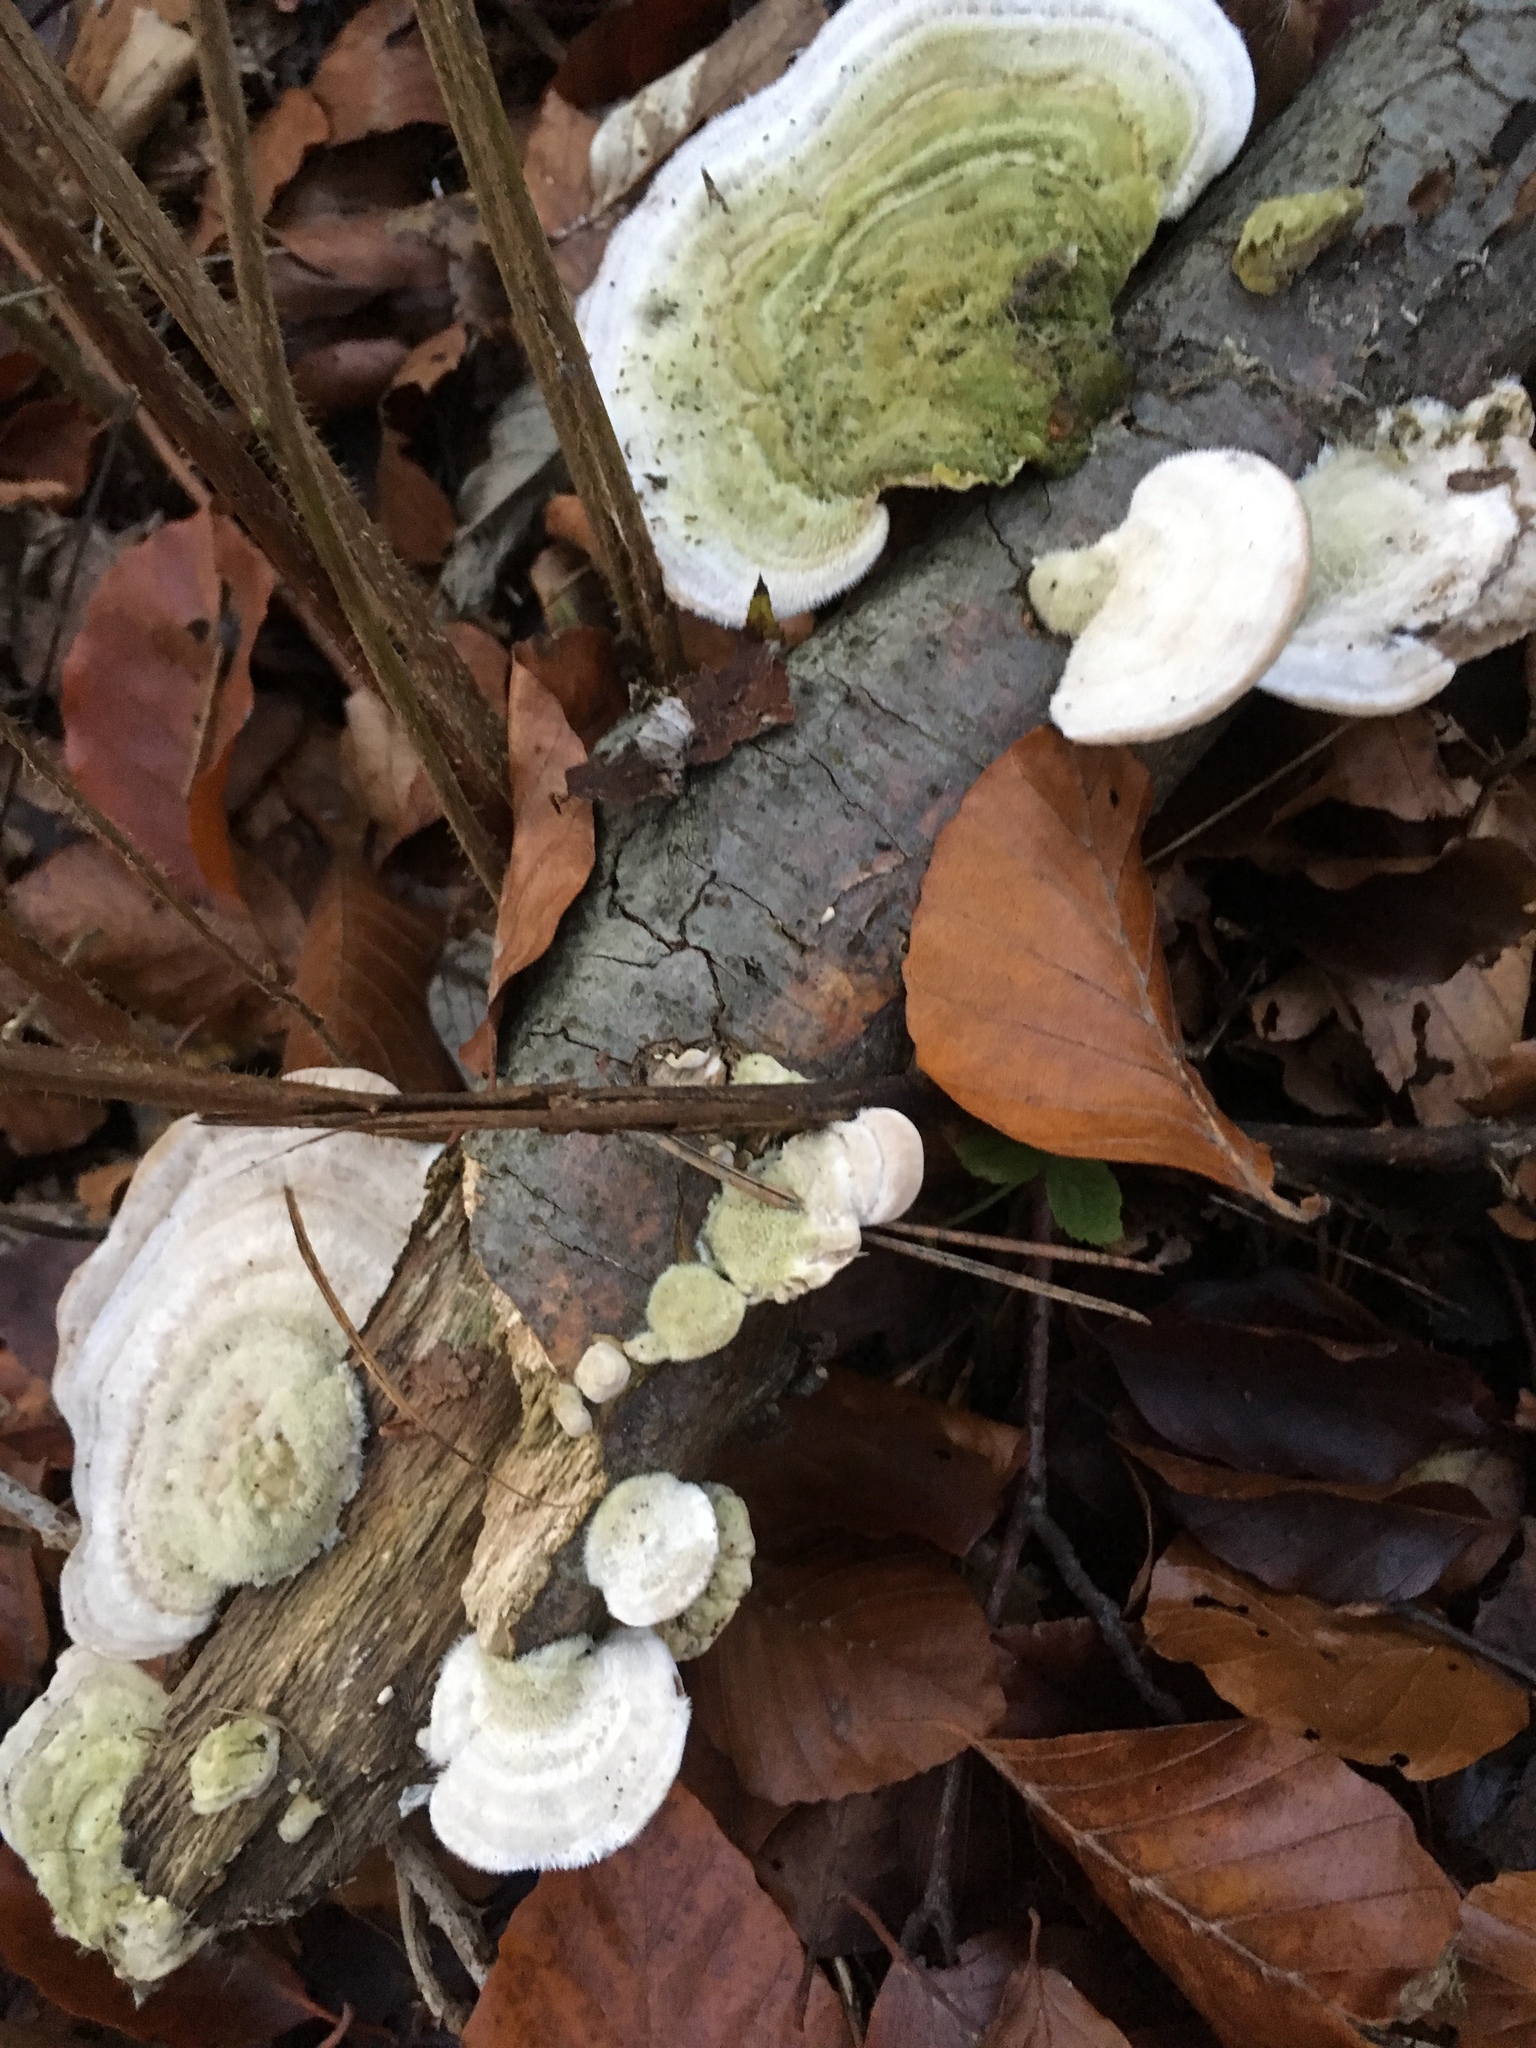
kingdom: Fungi
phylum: Basidiomycota
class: Agaricomycetes
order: Polyporales
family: Polyporaceae
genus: Trametes
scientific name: Trametes hirsuta
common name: Hairy bracket
